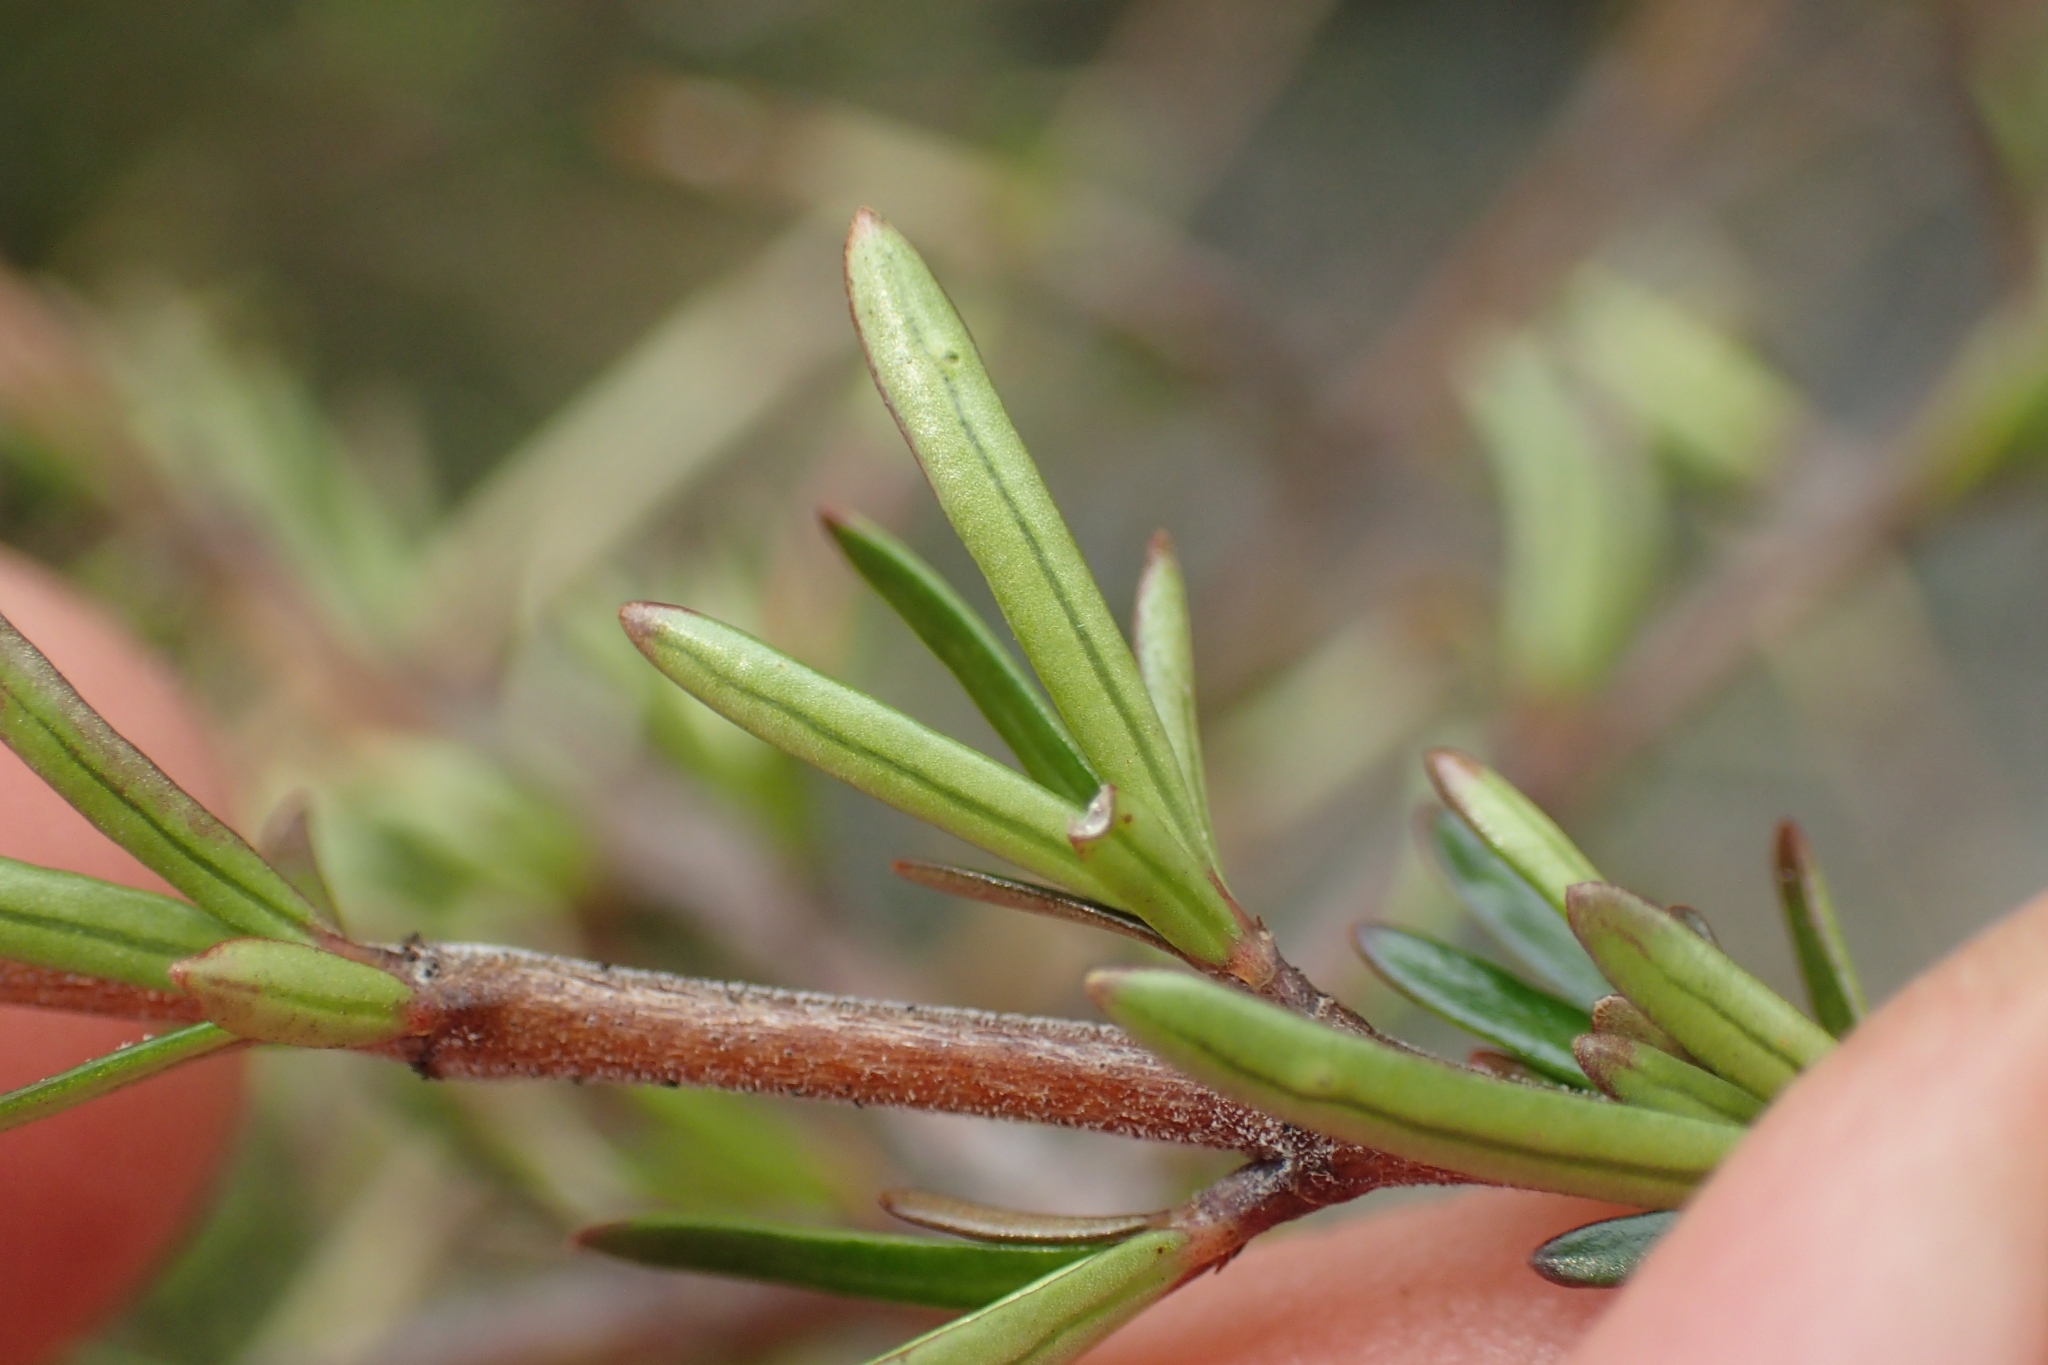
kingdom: Plantae
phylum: Tracheophyta
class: Magnoliopsida
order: Gentianales
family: Rubiaceae
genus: Coprosma
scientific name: Coprosma rugosa
